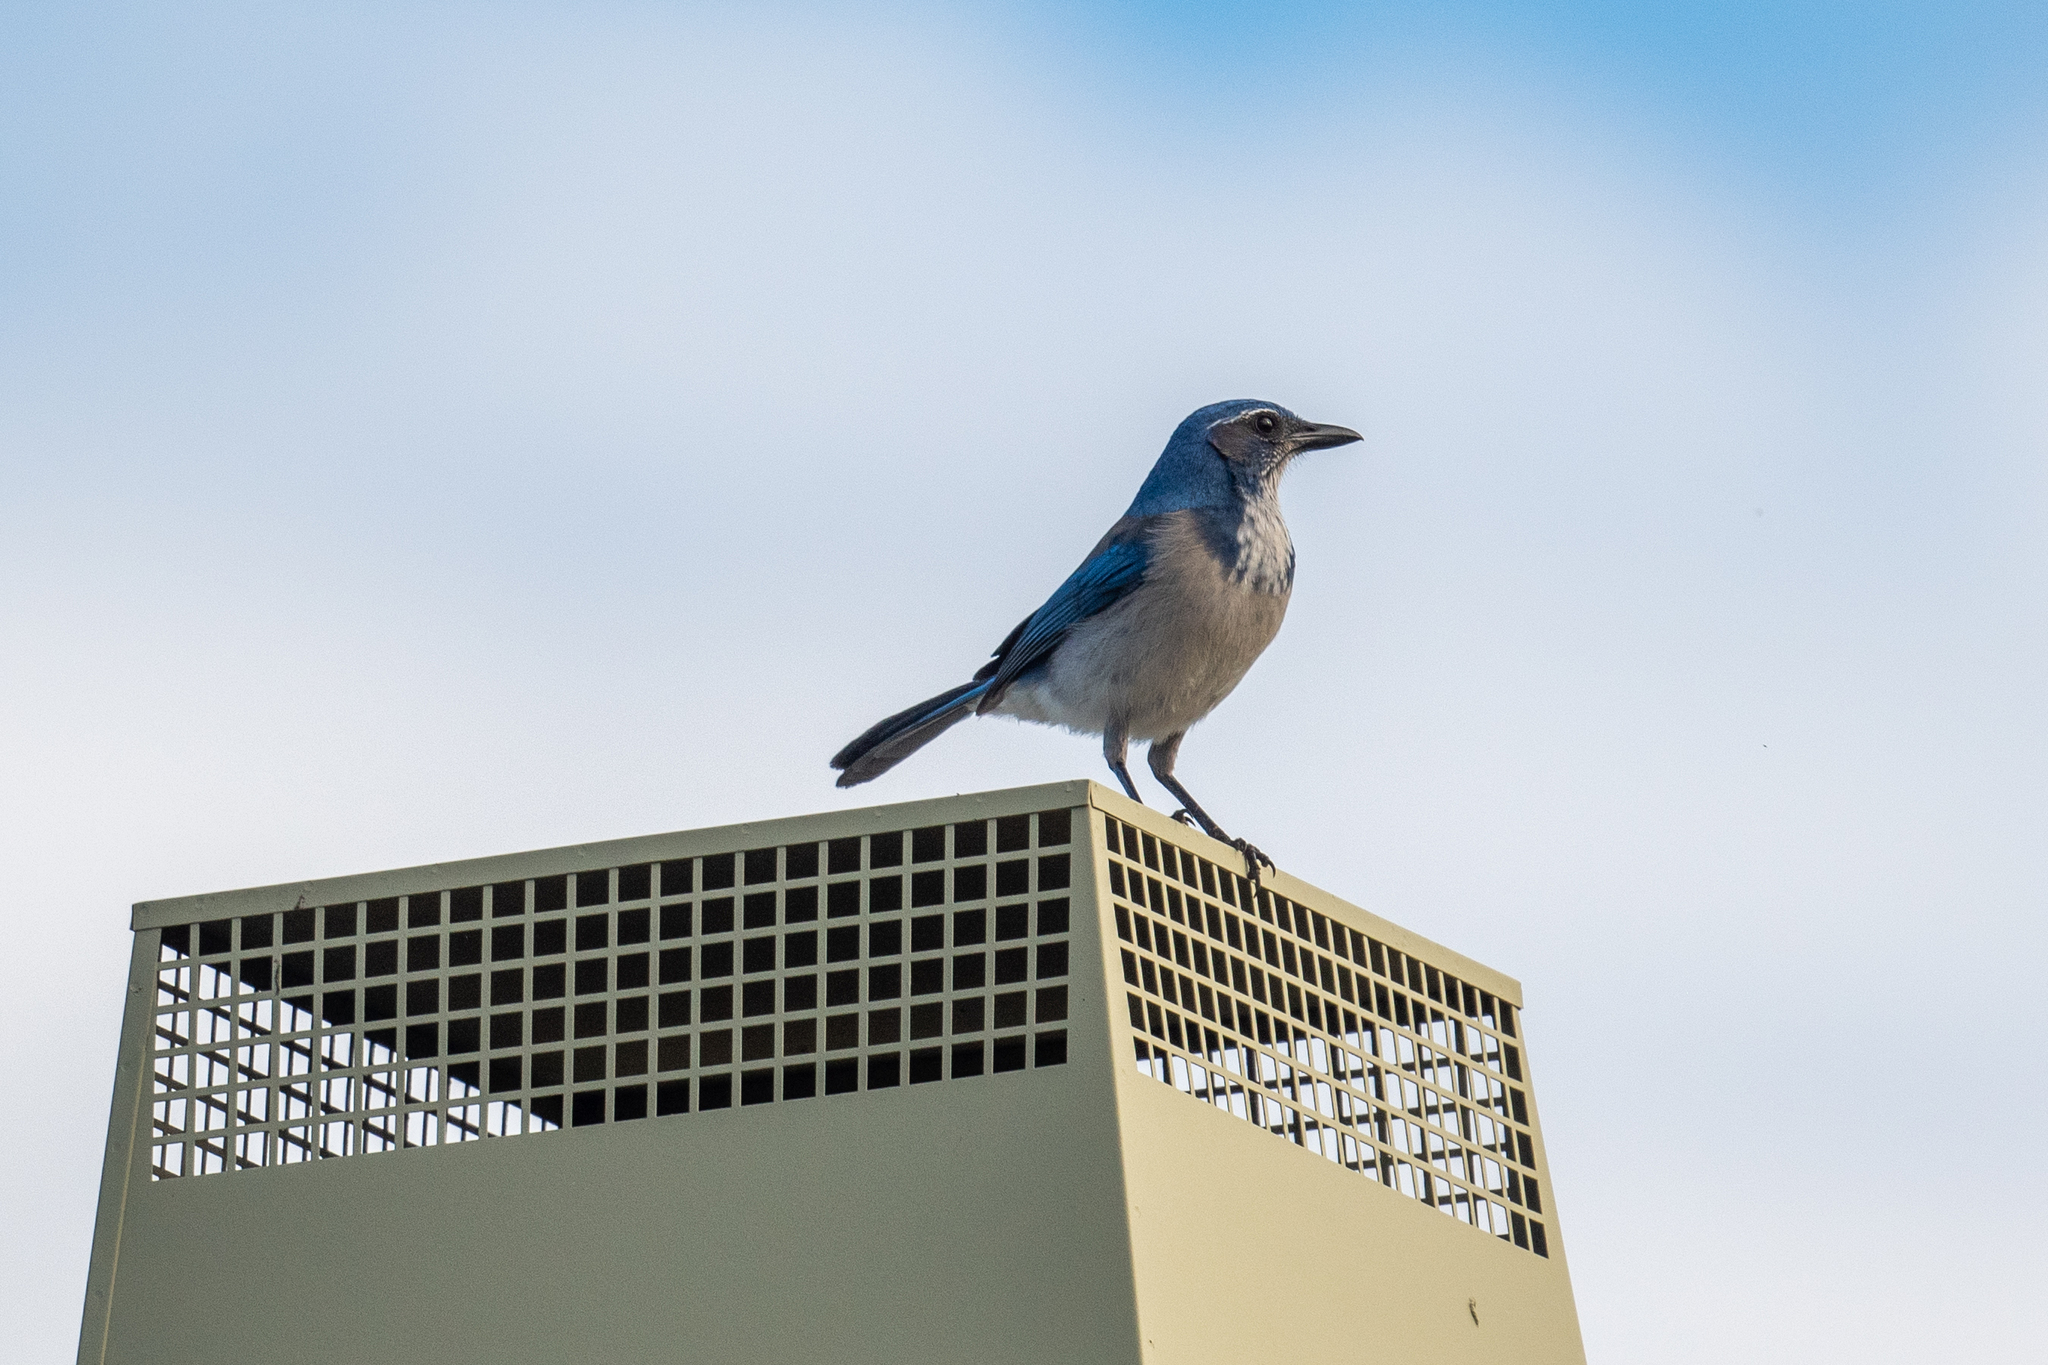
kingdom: Animalia
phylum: Chordata
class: Aves
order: Passeriformes
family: Corvidae
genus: Aphelocoma
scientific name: Aphelocoma californica
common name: California scrub-jay
